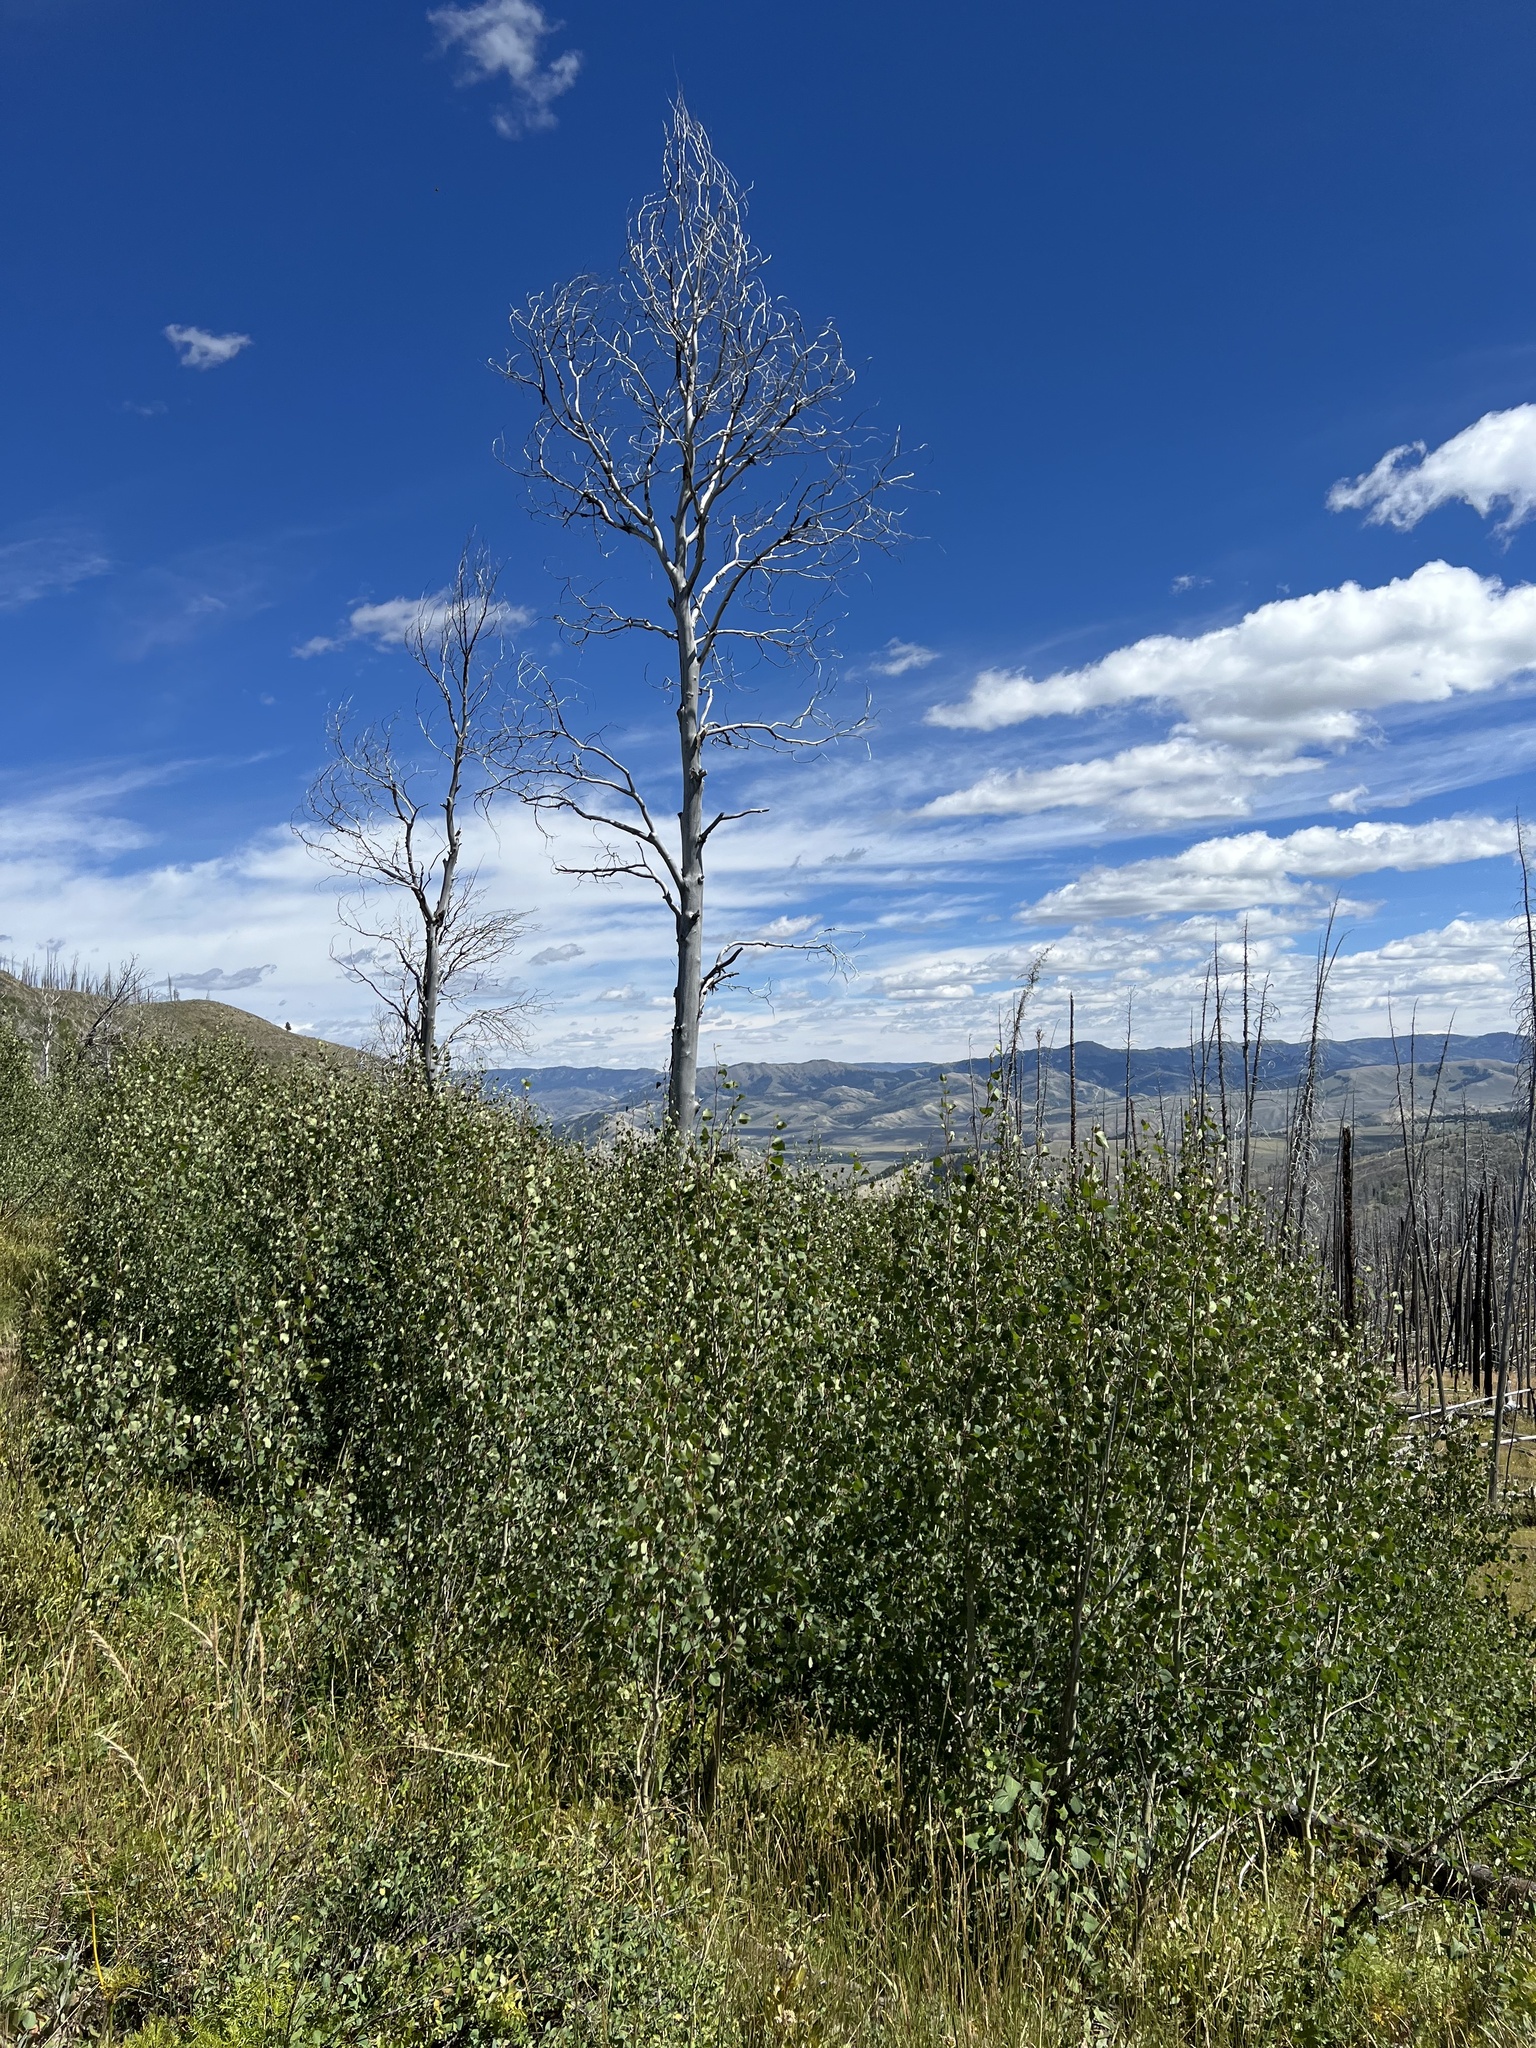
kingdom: Plantae
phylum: Tracheophyta
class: Magnoliopsida
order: Malpighiales
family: Salicaceae
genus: Populus
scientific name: Populus tremuloides
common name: Quaking aspen
